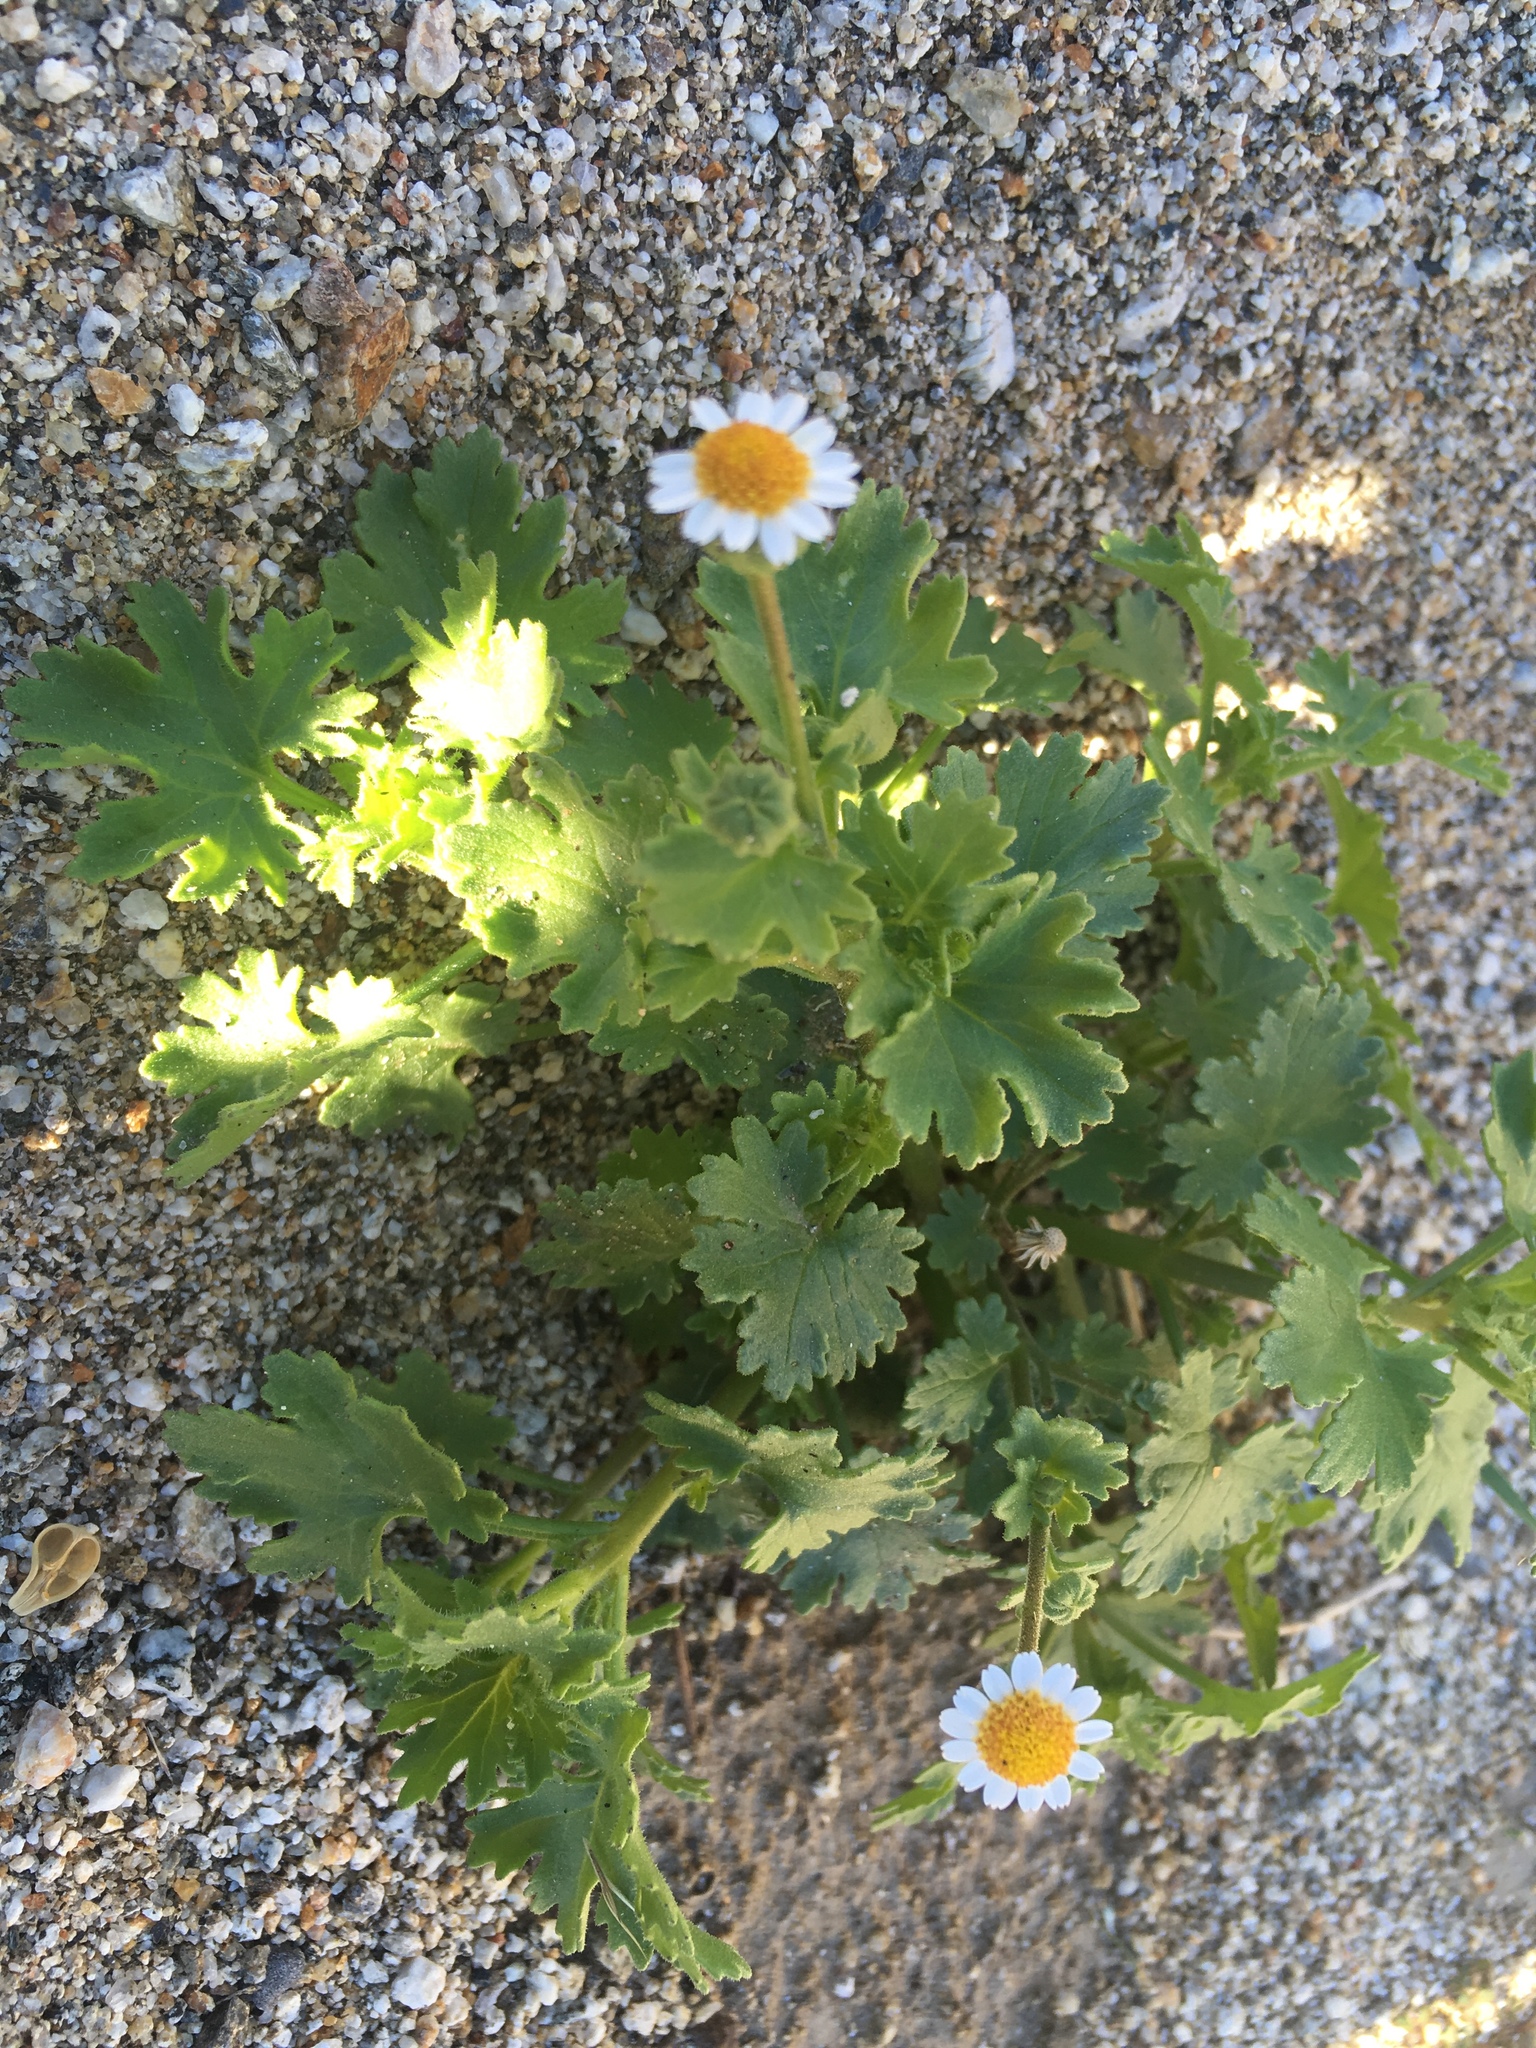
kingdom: Plantae
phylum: Tracheophyta
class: Magnoliopsida
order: Asterales
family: Asteraceae
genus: Laphamia
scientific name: Laphamia emoryi
